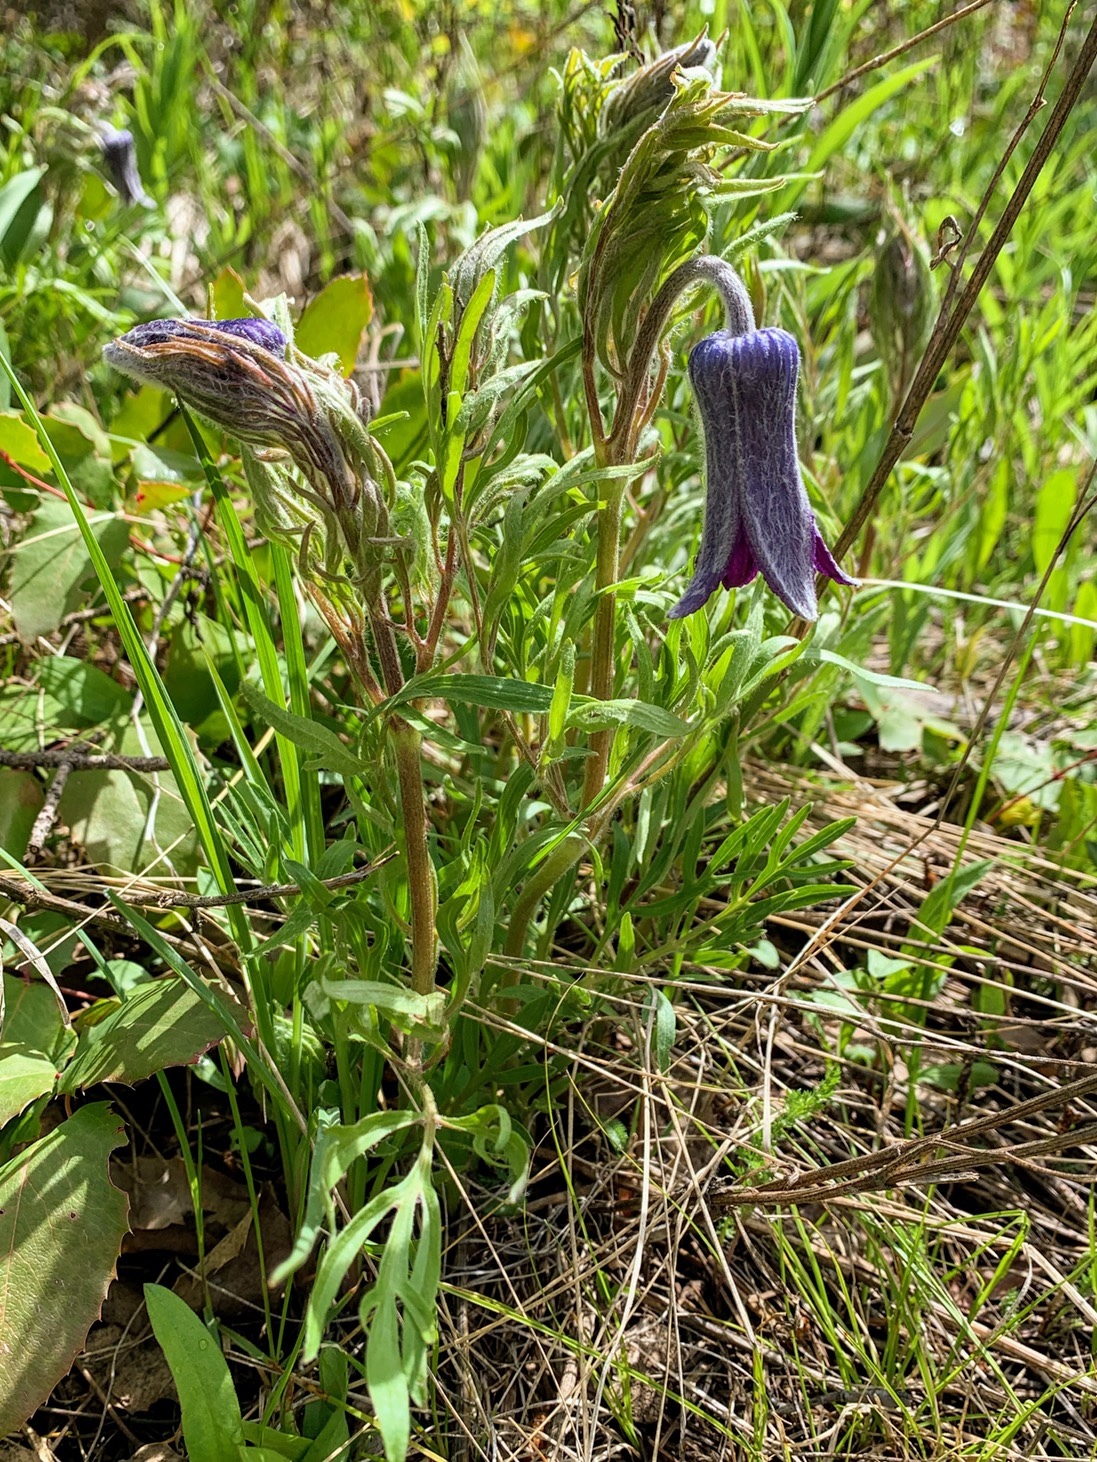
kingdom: Plantae
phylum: Tracheophyta
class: Magnoliopsida
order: Ranunculales
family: Ranunculaceae
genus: Clematis
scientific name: Clematis hirsutissima
